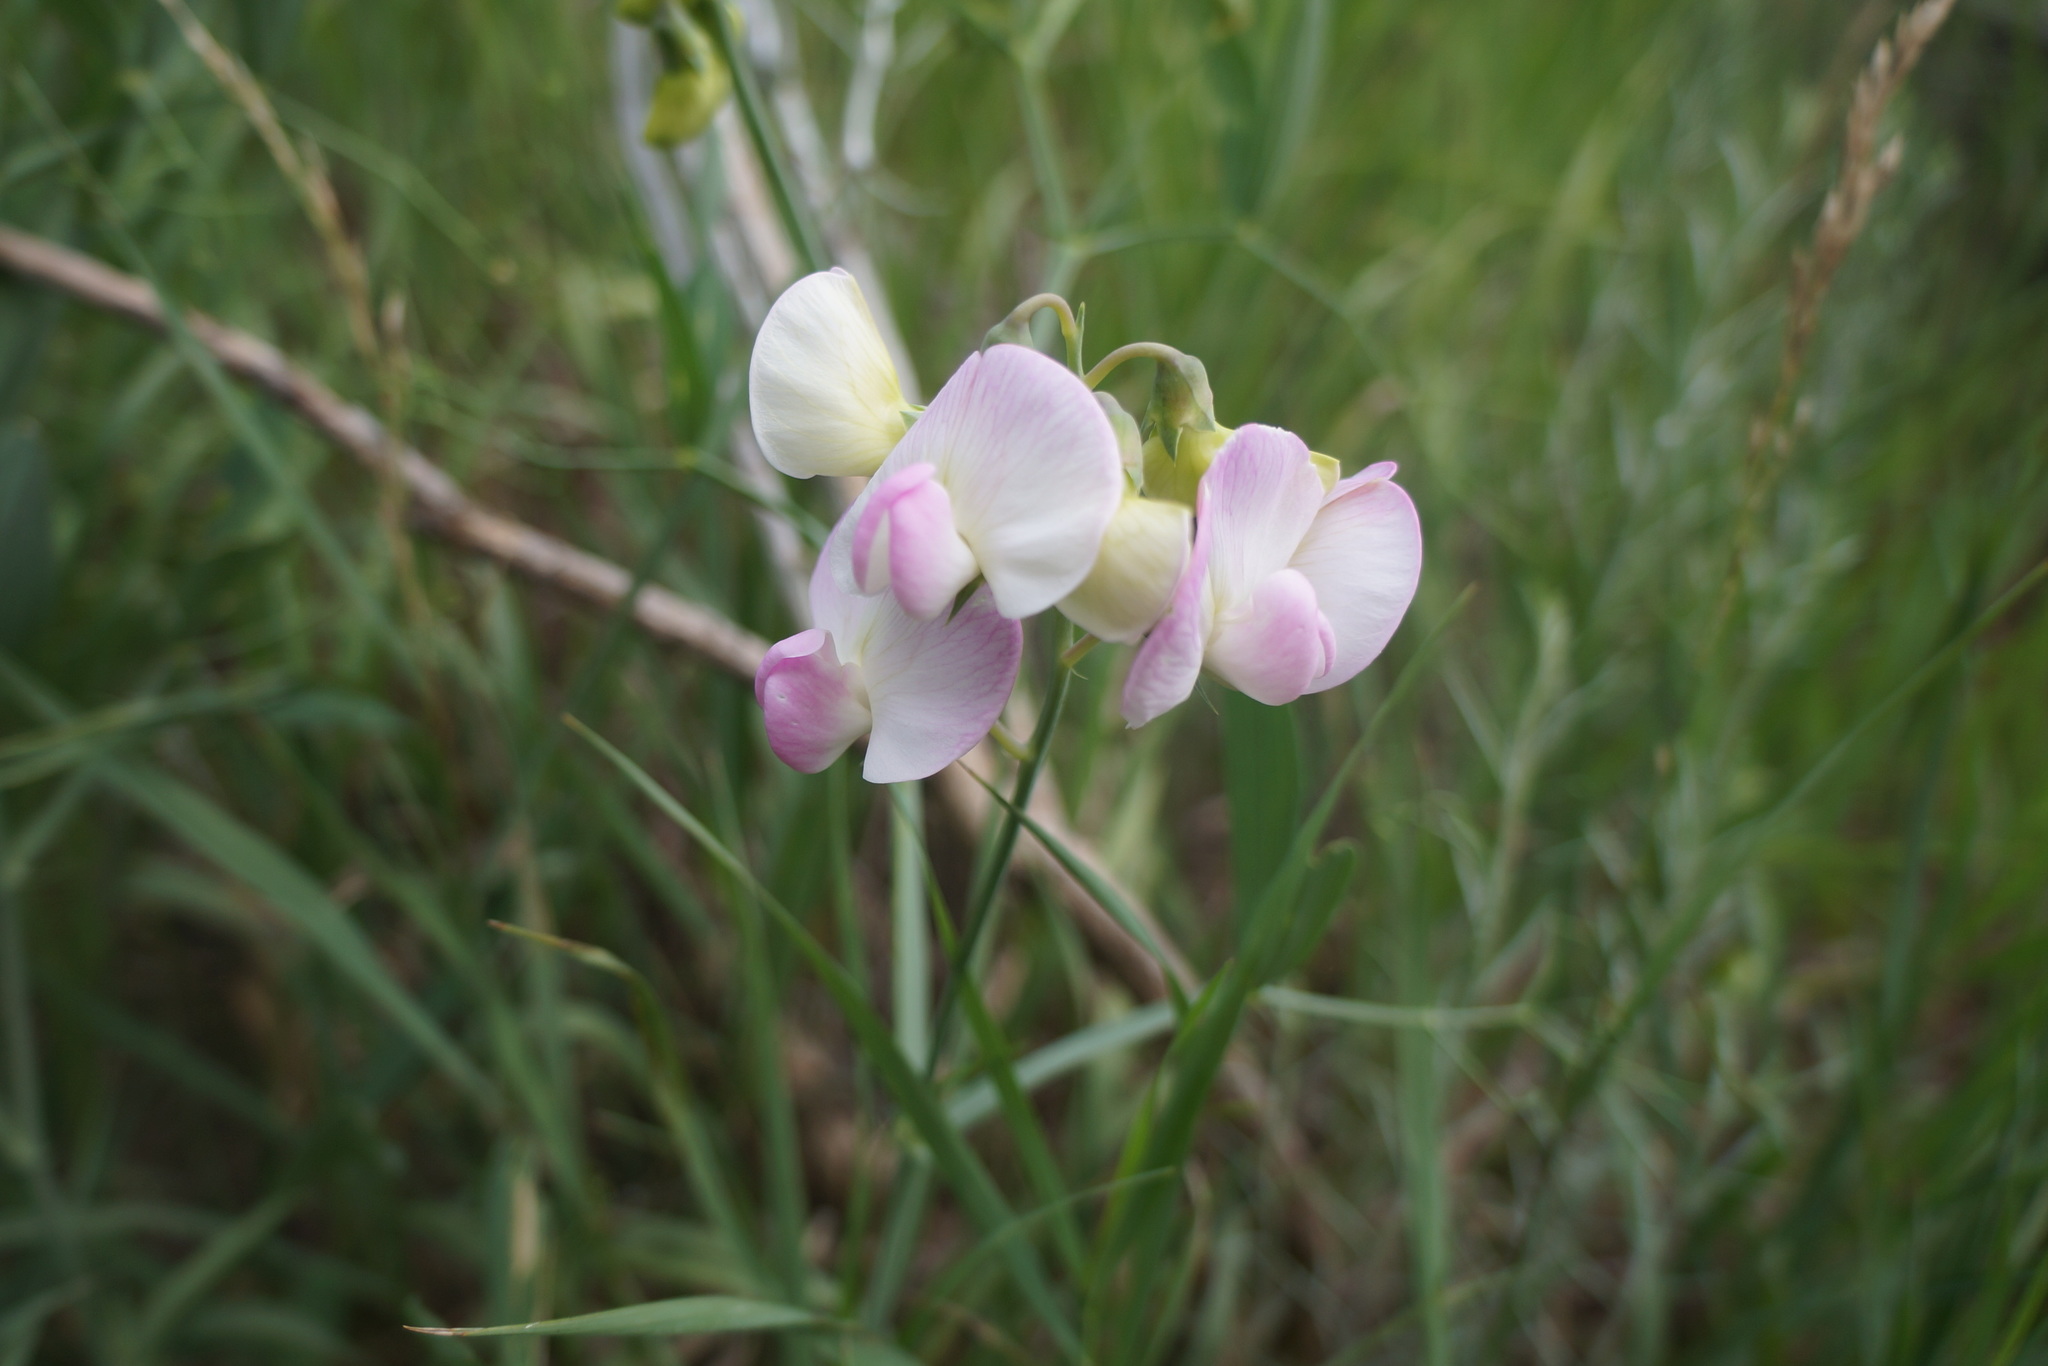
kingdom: Plantae
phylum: Tracheophyta
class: Magnoliopsida
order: Fabales
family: Fabaceae
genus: Lathyrus
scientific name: Lathyrus latifolius
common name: Perennial pea
